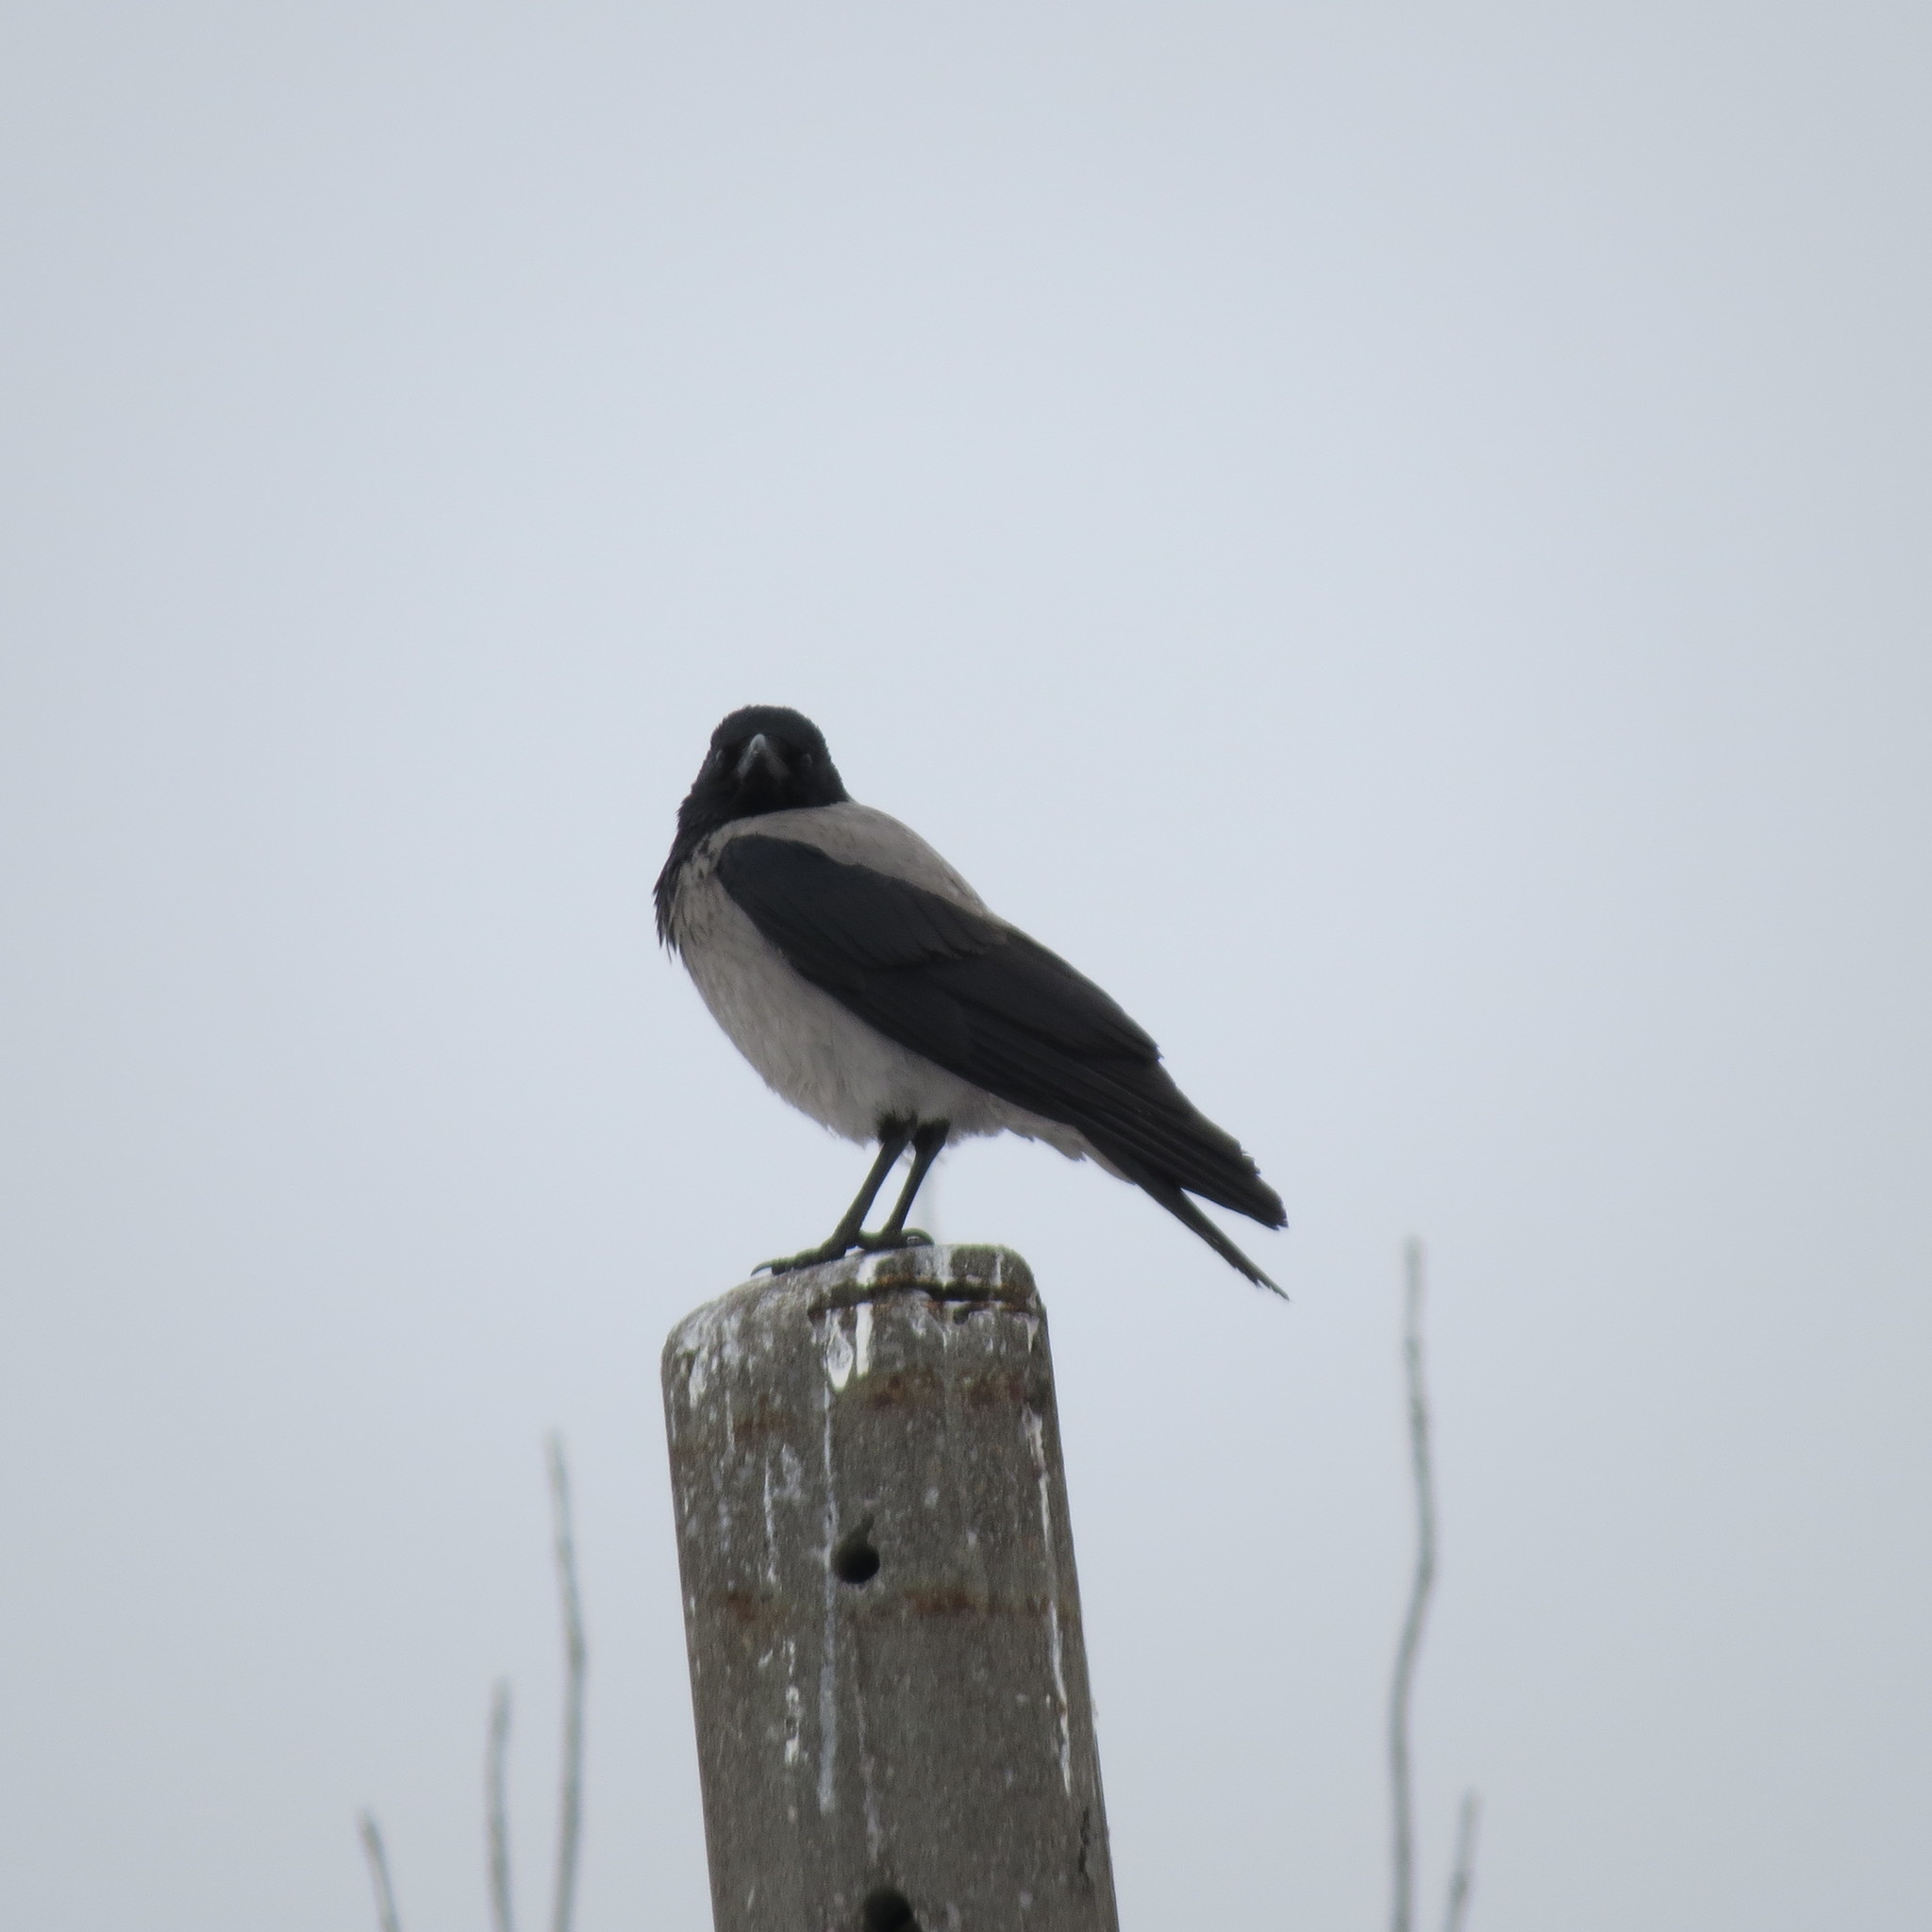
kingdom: Animalia
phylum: Chordata
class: Aves
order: Passeriformes
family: Corvidae
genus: Corvus
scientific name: Corvus cornix
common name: Hooded crow
